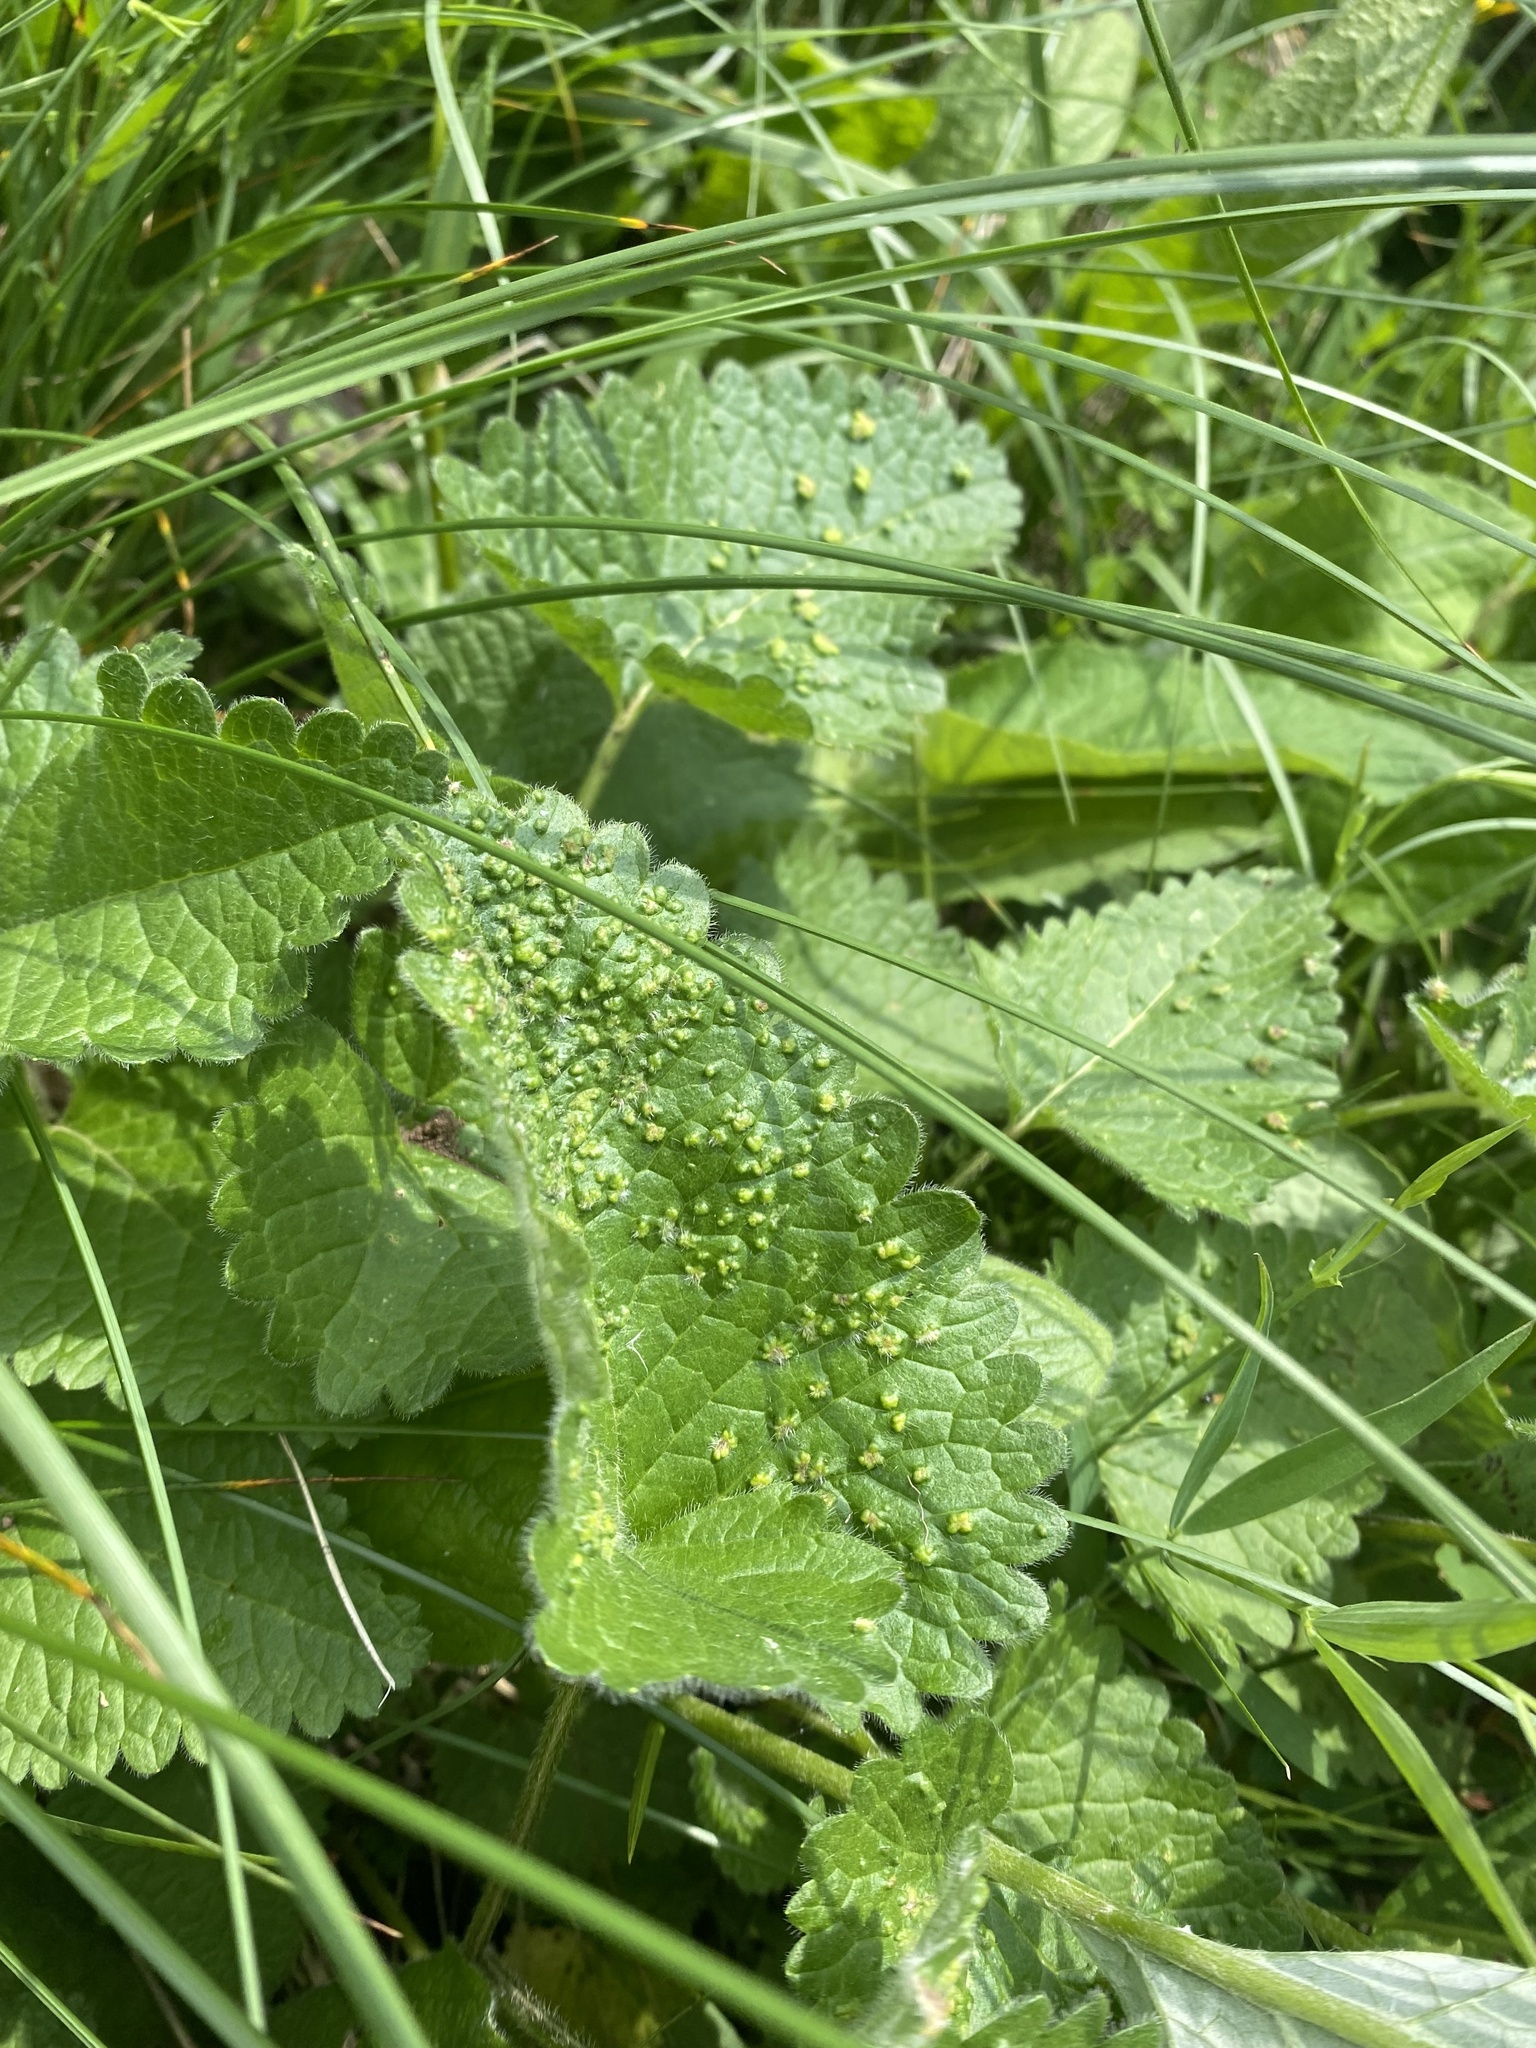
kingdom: Plantae
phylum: Tracheophyta
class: Magnoliopsida
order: Lamiales
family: Lamiaceae
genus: Betonica
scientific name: Betonica macrantha
